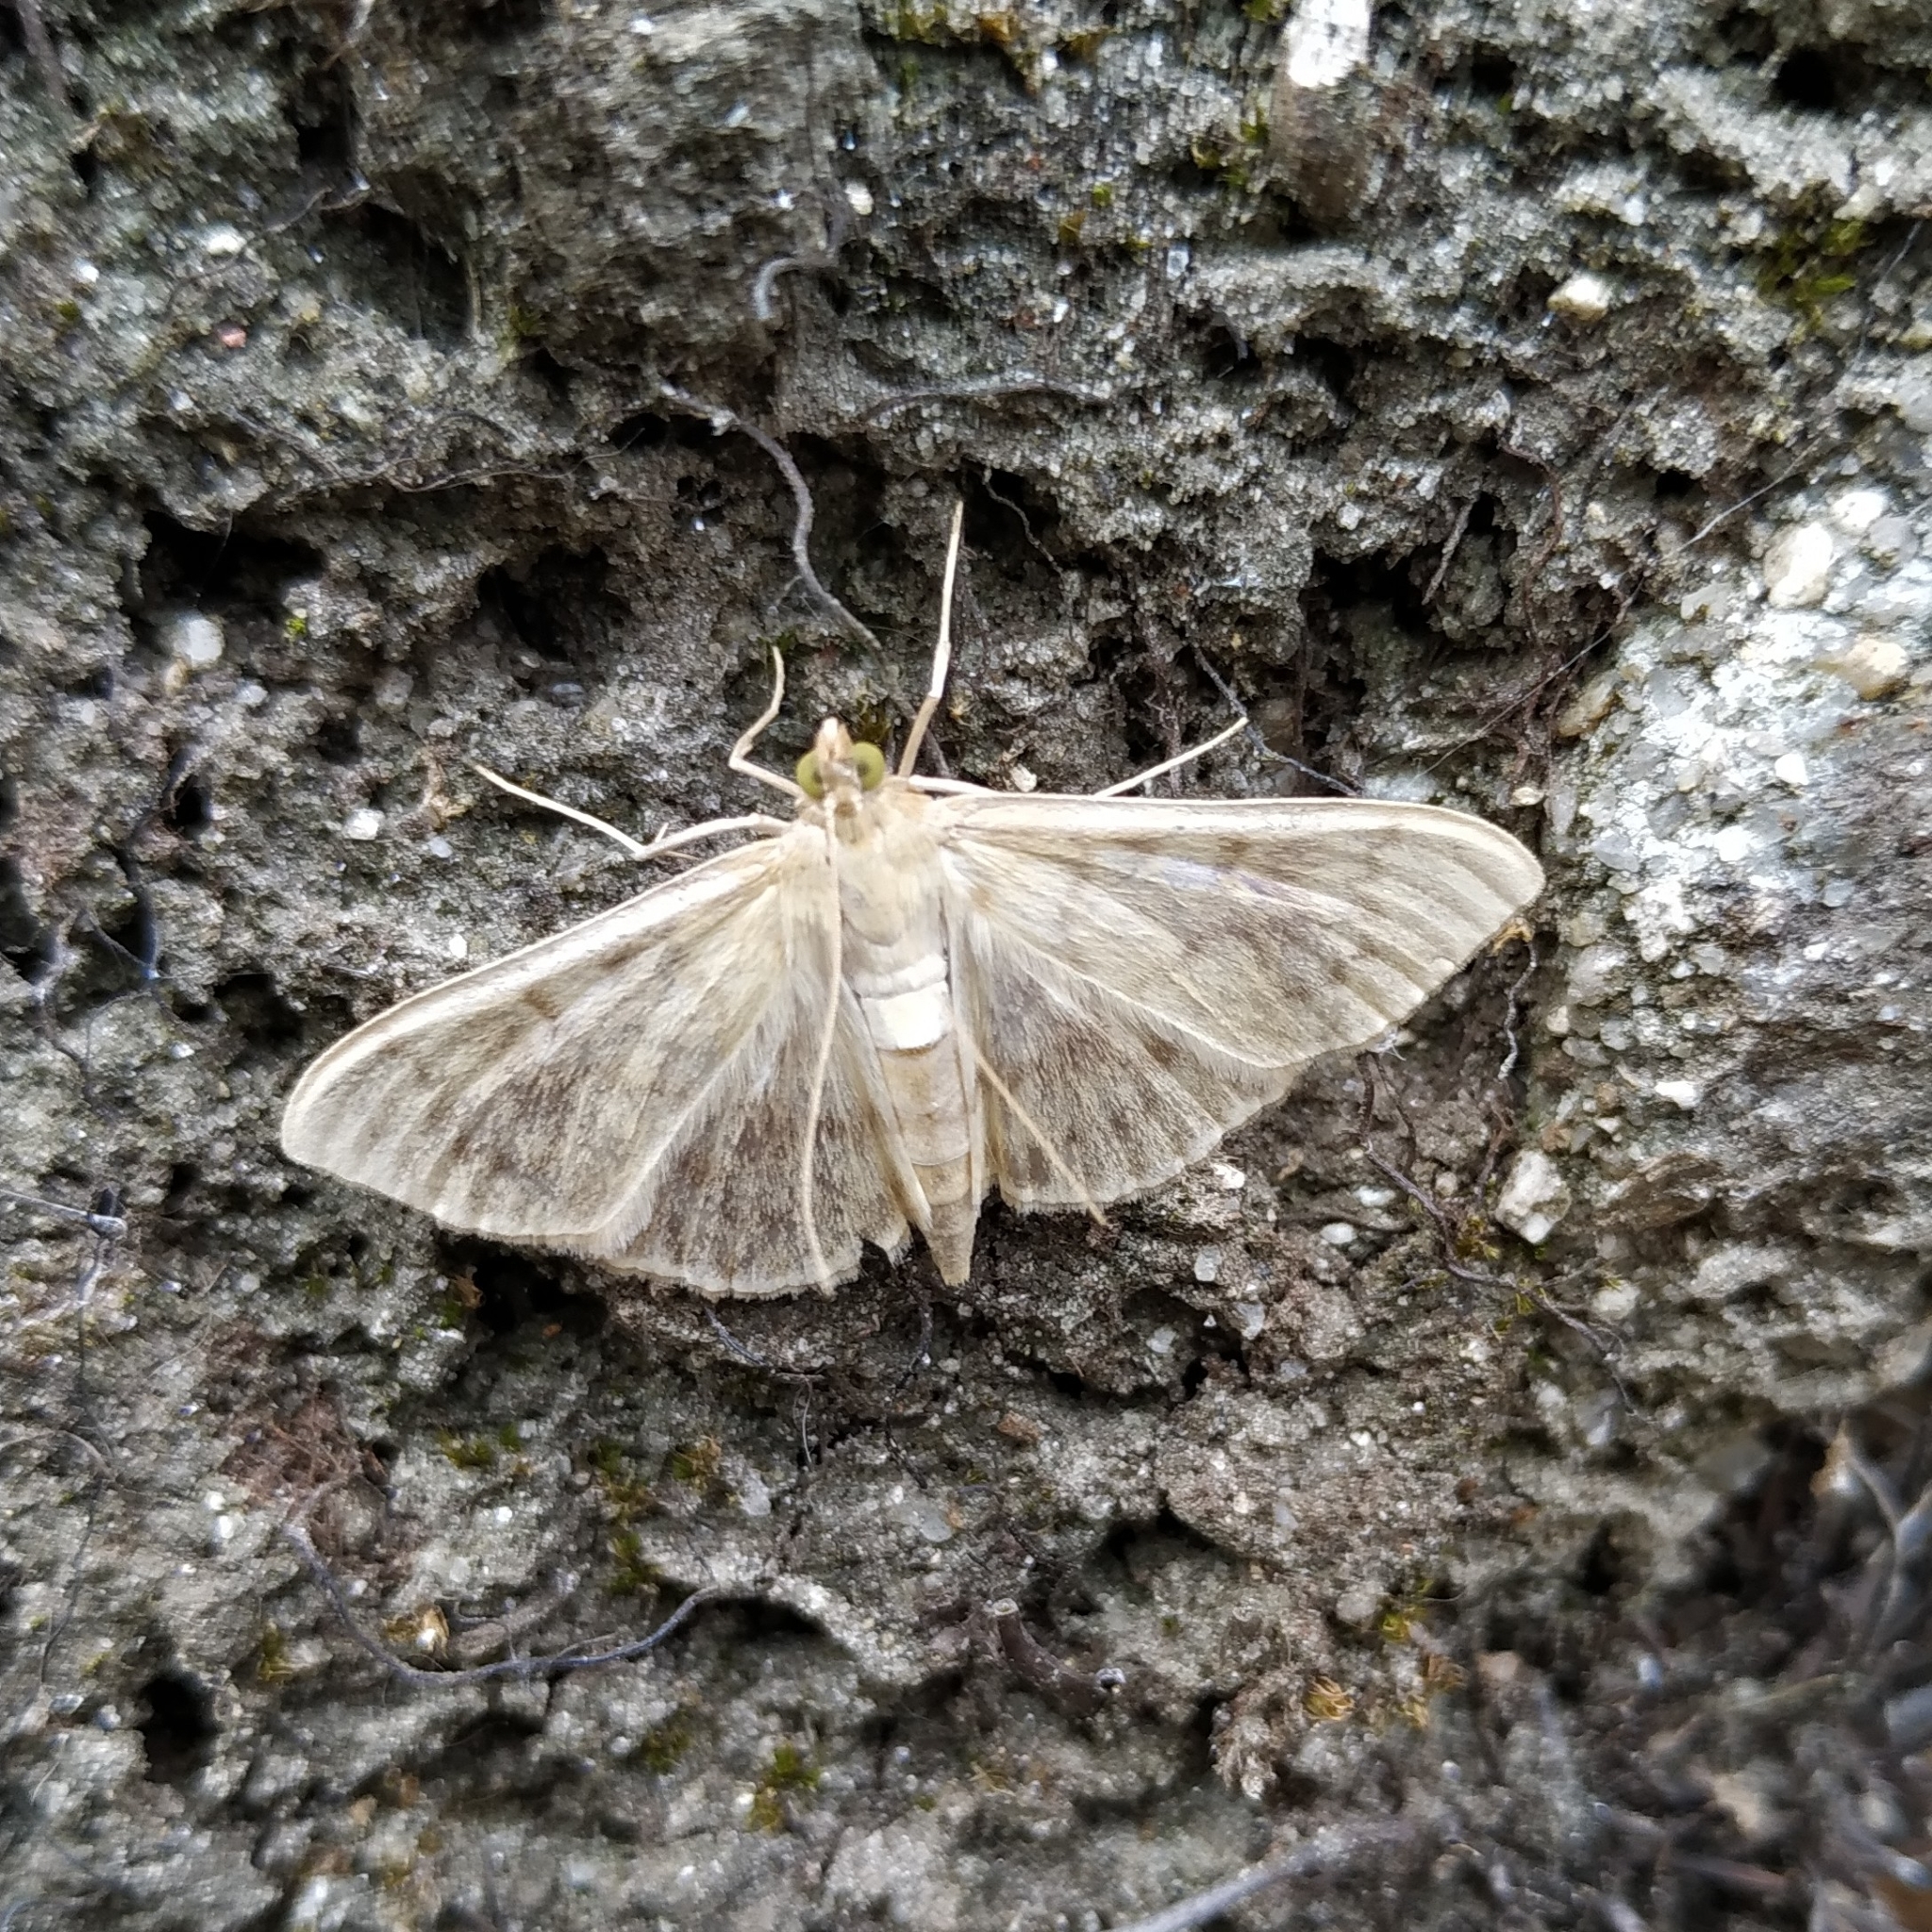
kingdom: Animalia
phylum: Arthropoda
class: Insecta
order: Lepidoptera
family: Crambidae
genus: Patania
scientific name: Patania ruralis
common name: Mother of pearl
